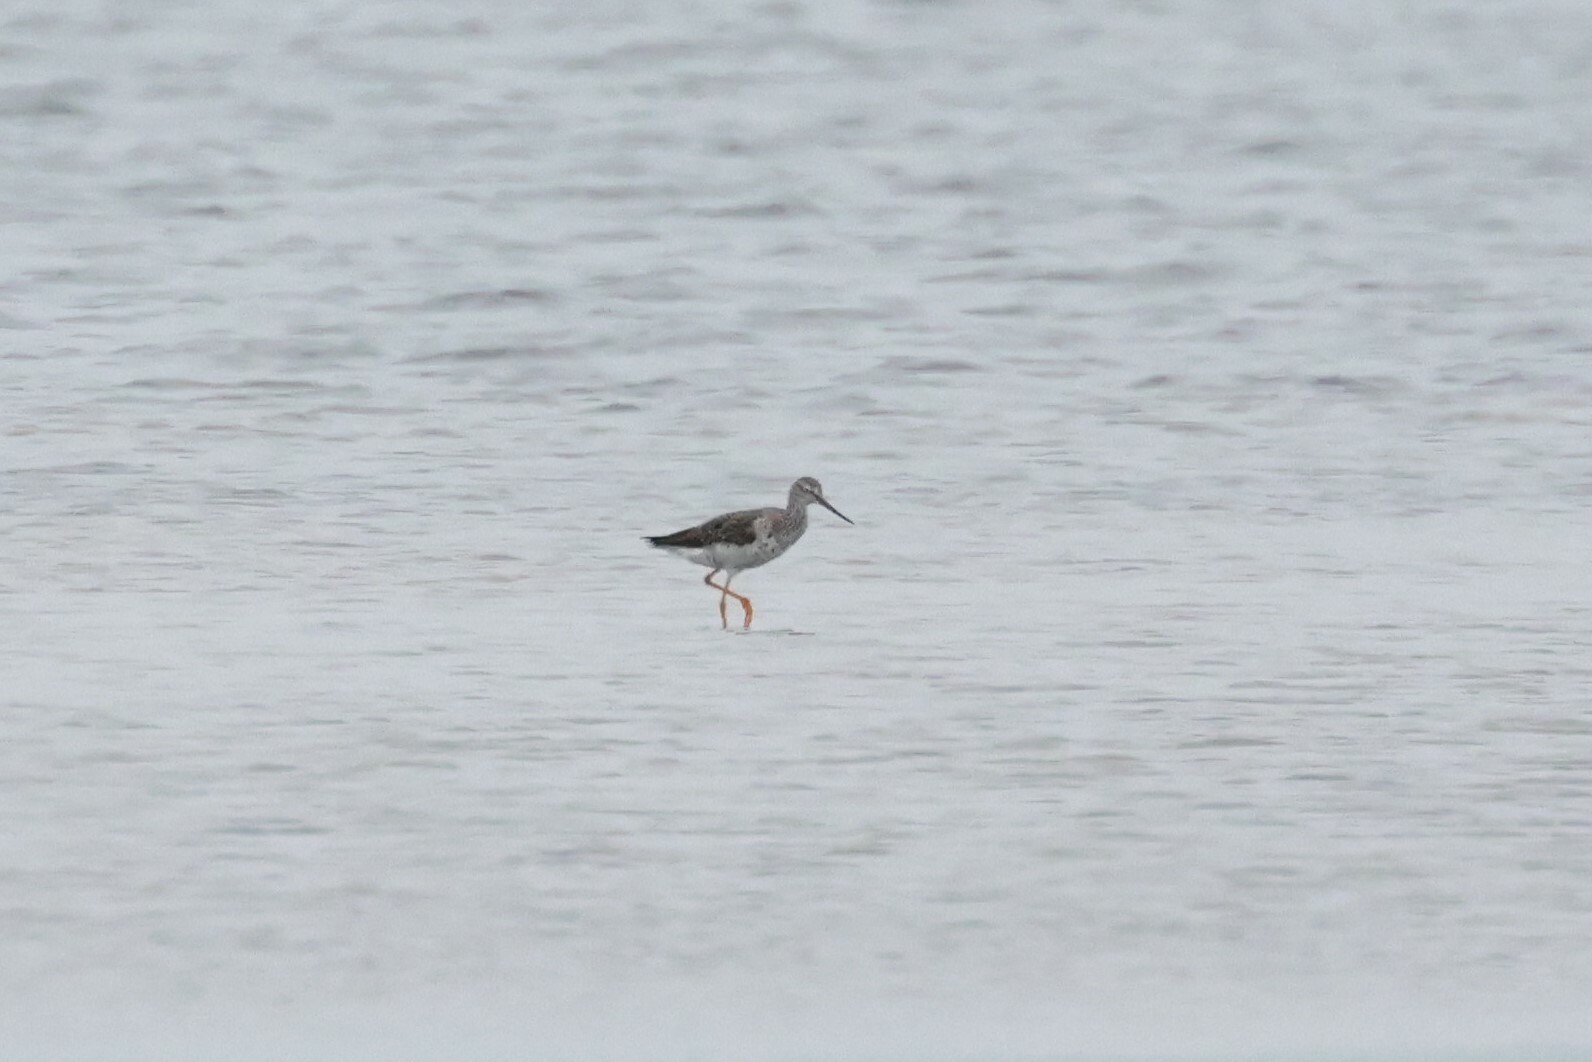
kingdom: Animalia
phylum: Chordata
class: Aves
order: Charadriiformes
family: Scolopacidae
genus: Tringa
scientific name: Tringa melanoleuca
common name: Greater yellowlegs
